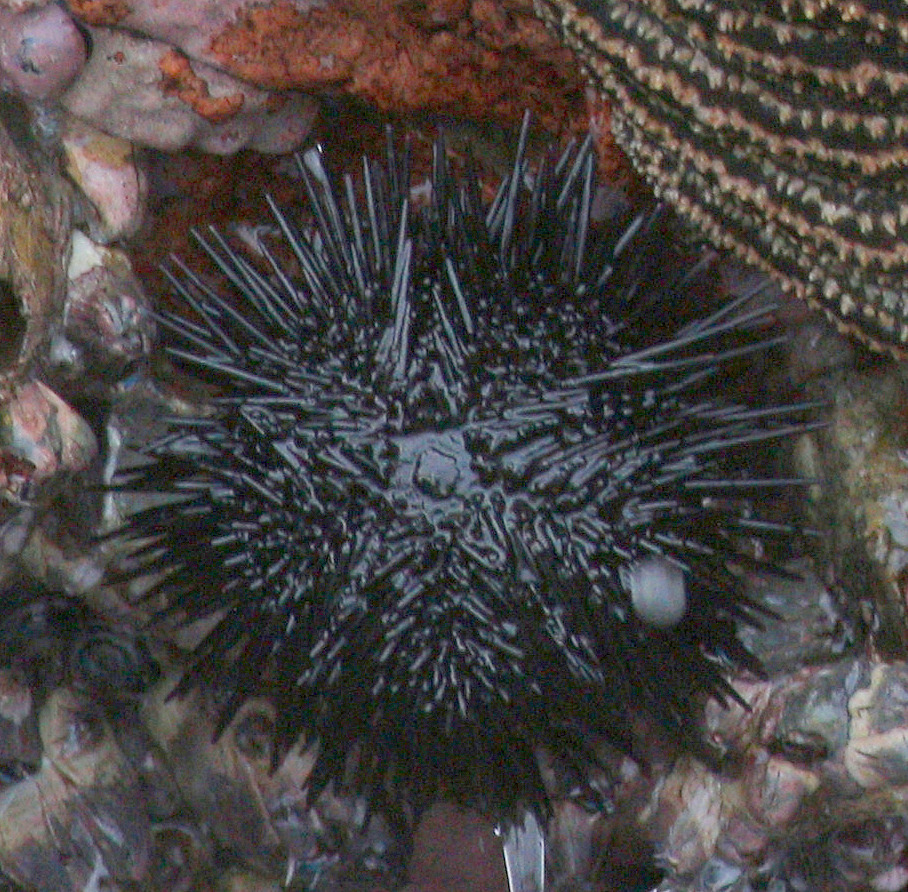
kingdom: Animalia
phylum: Echinodermata
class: Echinoidea
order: Arbacioida
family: Arbaciidae
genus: Tetrapygus
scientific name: Tetrapygus niger
